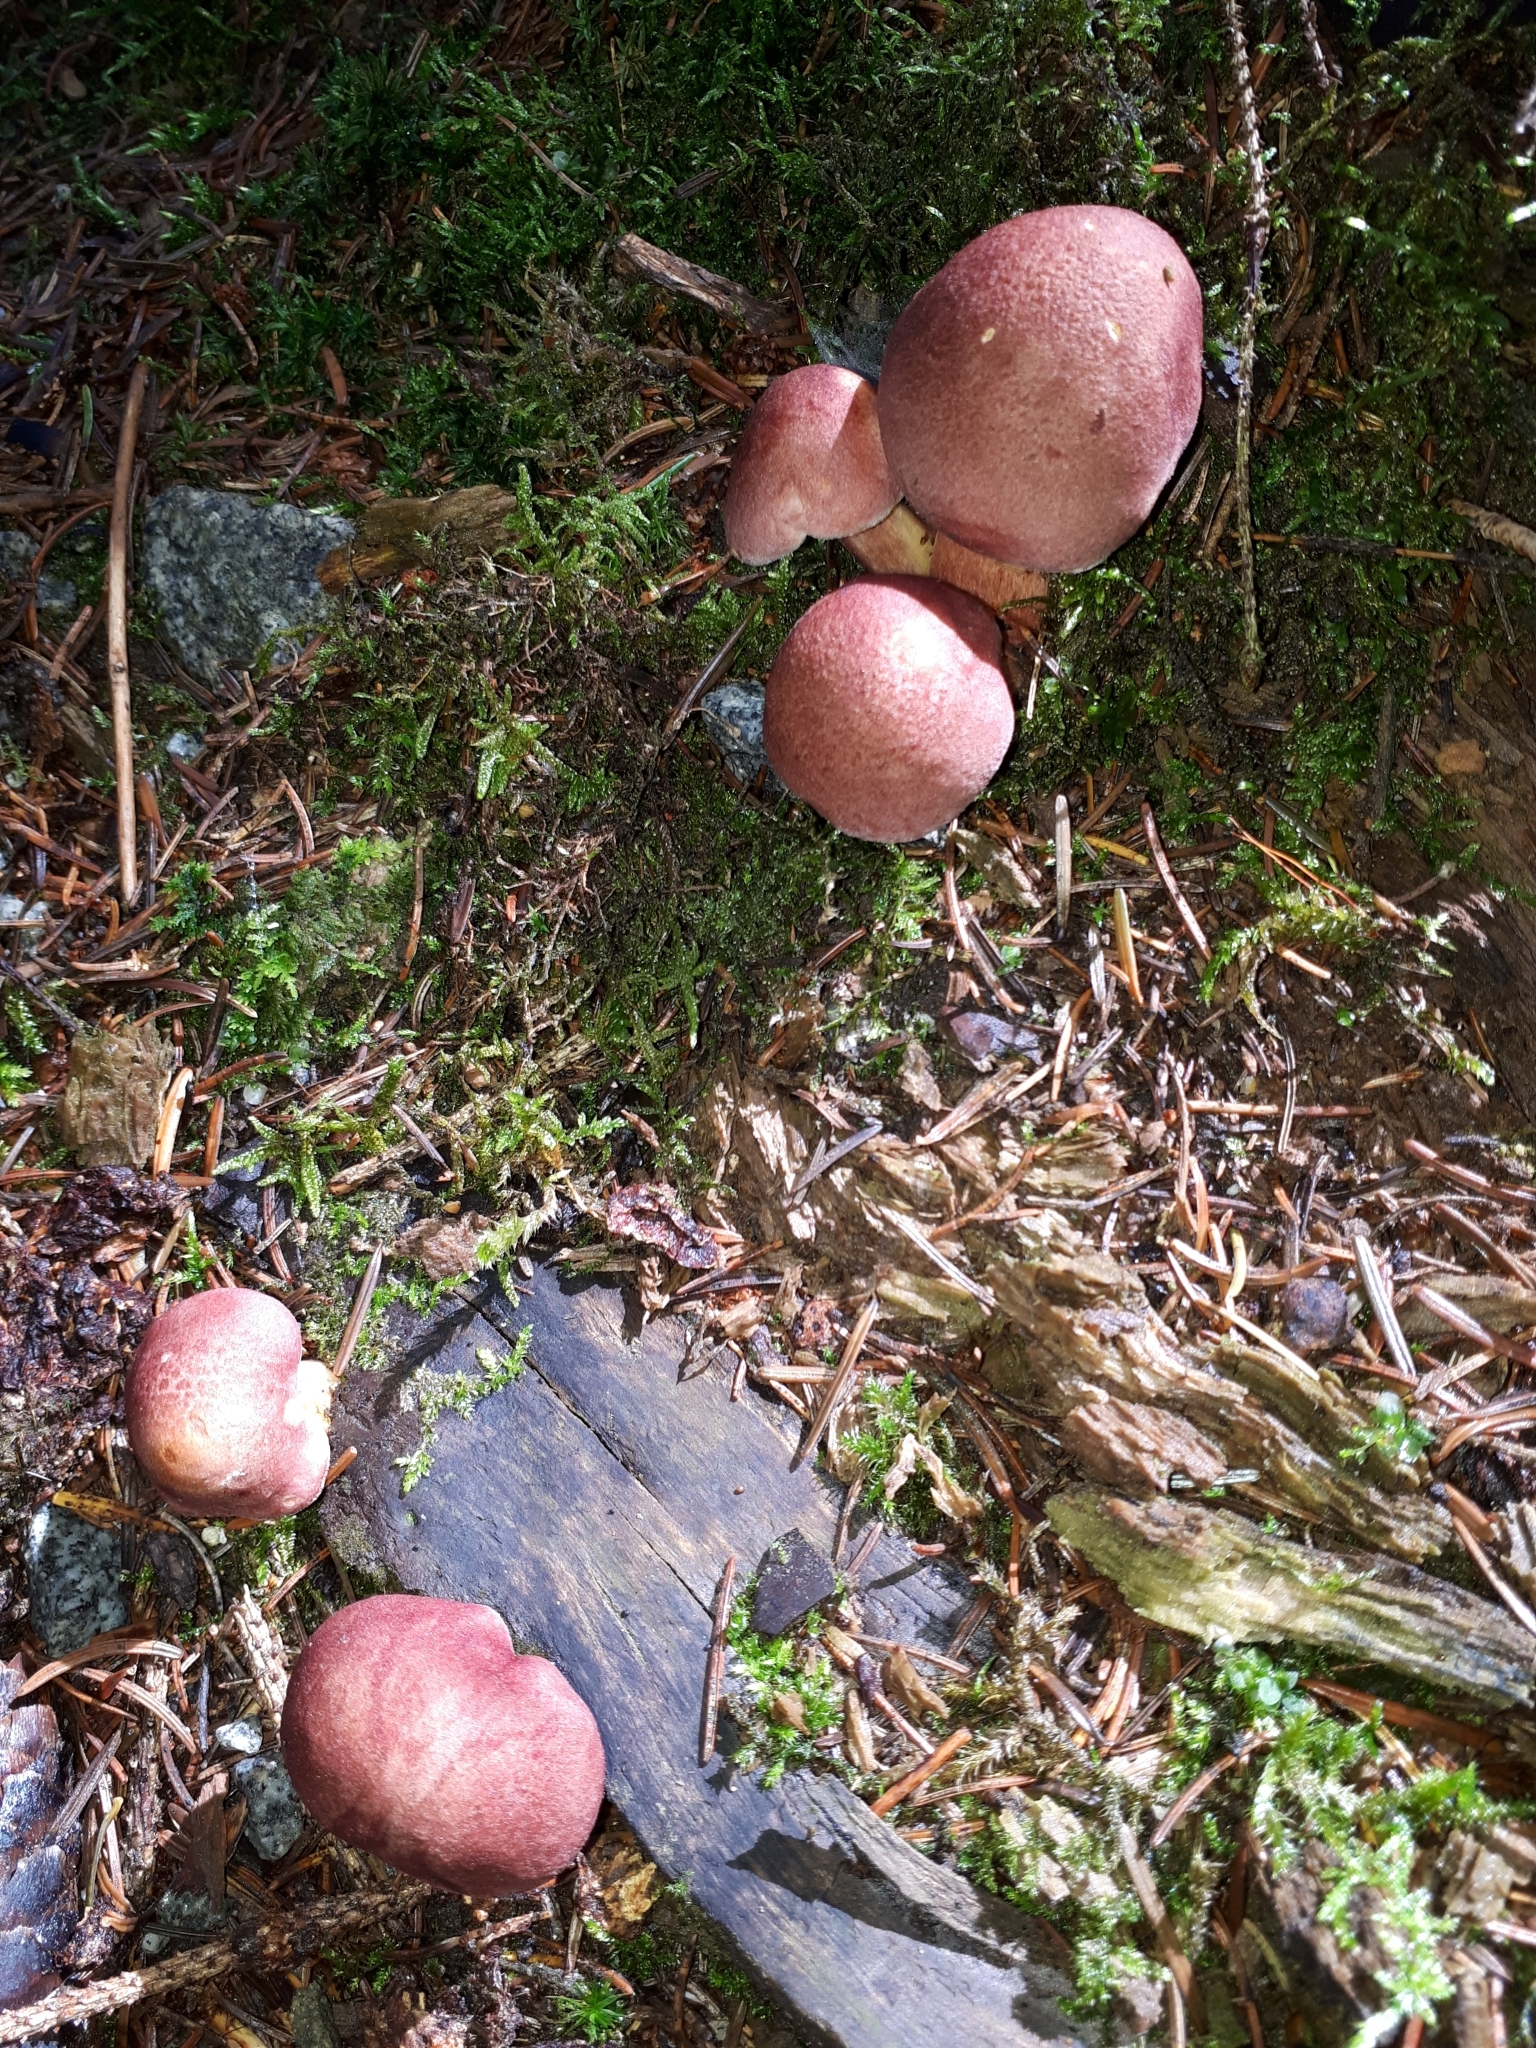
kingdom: Fungi
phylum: Basidiomycota
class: Agaricomycetes
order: Agaricales
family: Tricholomataceae
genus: Tricholomopsis
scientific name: Tricholomopsis rutilans
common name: Plums and custard
